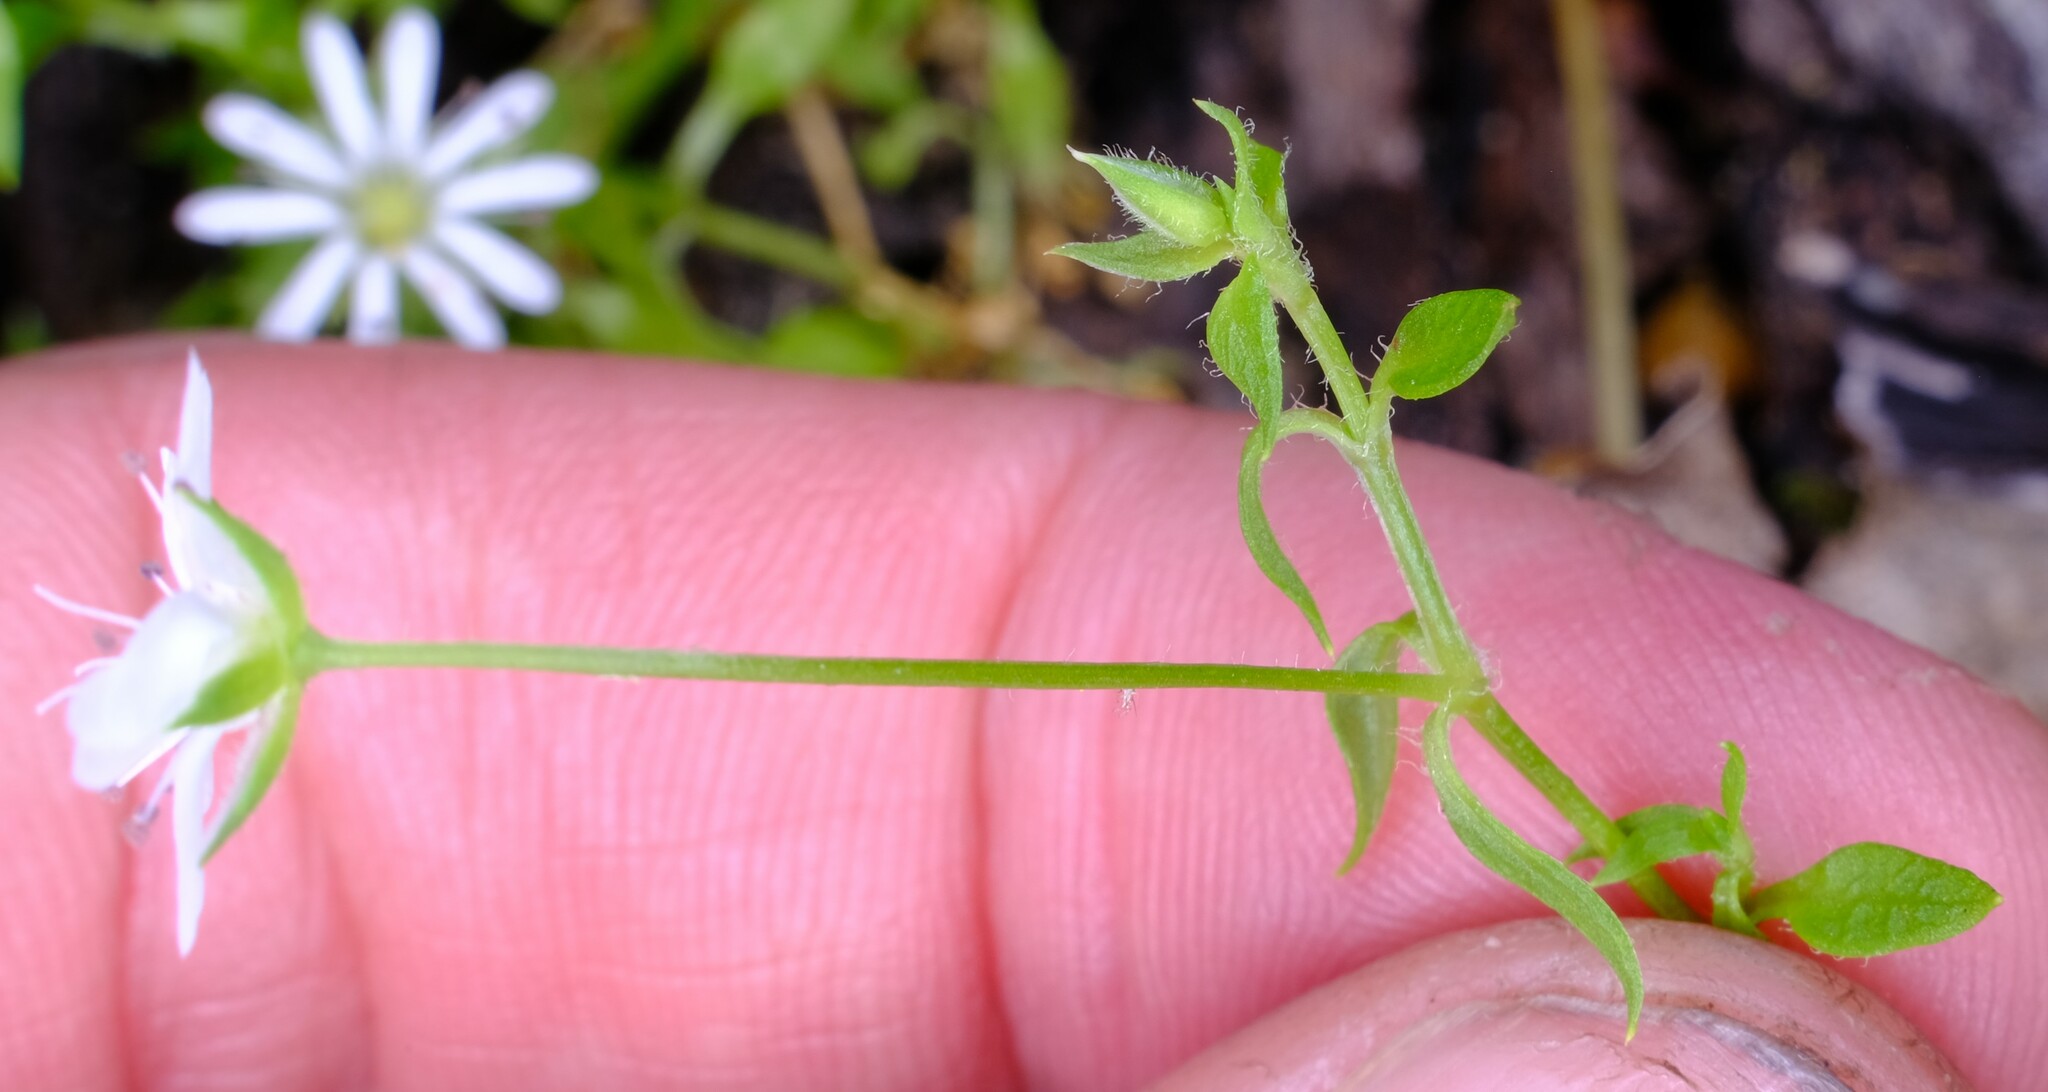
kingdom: Plantae
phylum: Tracheophyta
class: Magnoliopsida
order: Caryophyllales
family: Caryophyllaceae
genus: Stellaria
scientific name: Stellaria flaccida
